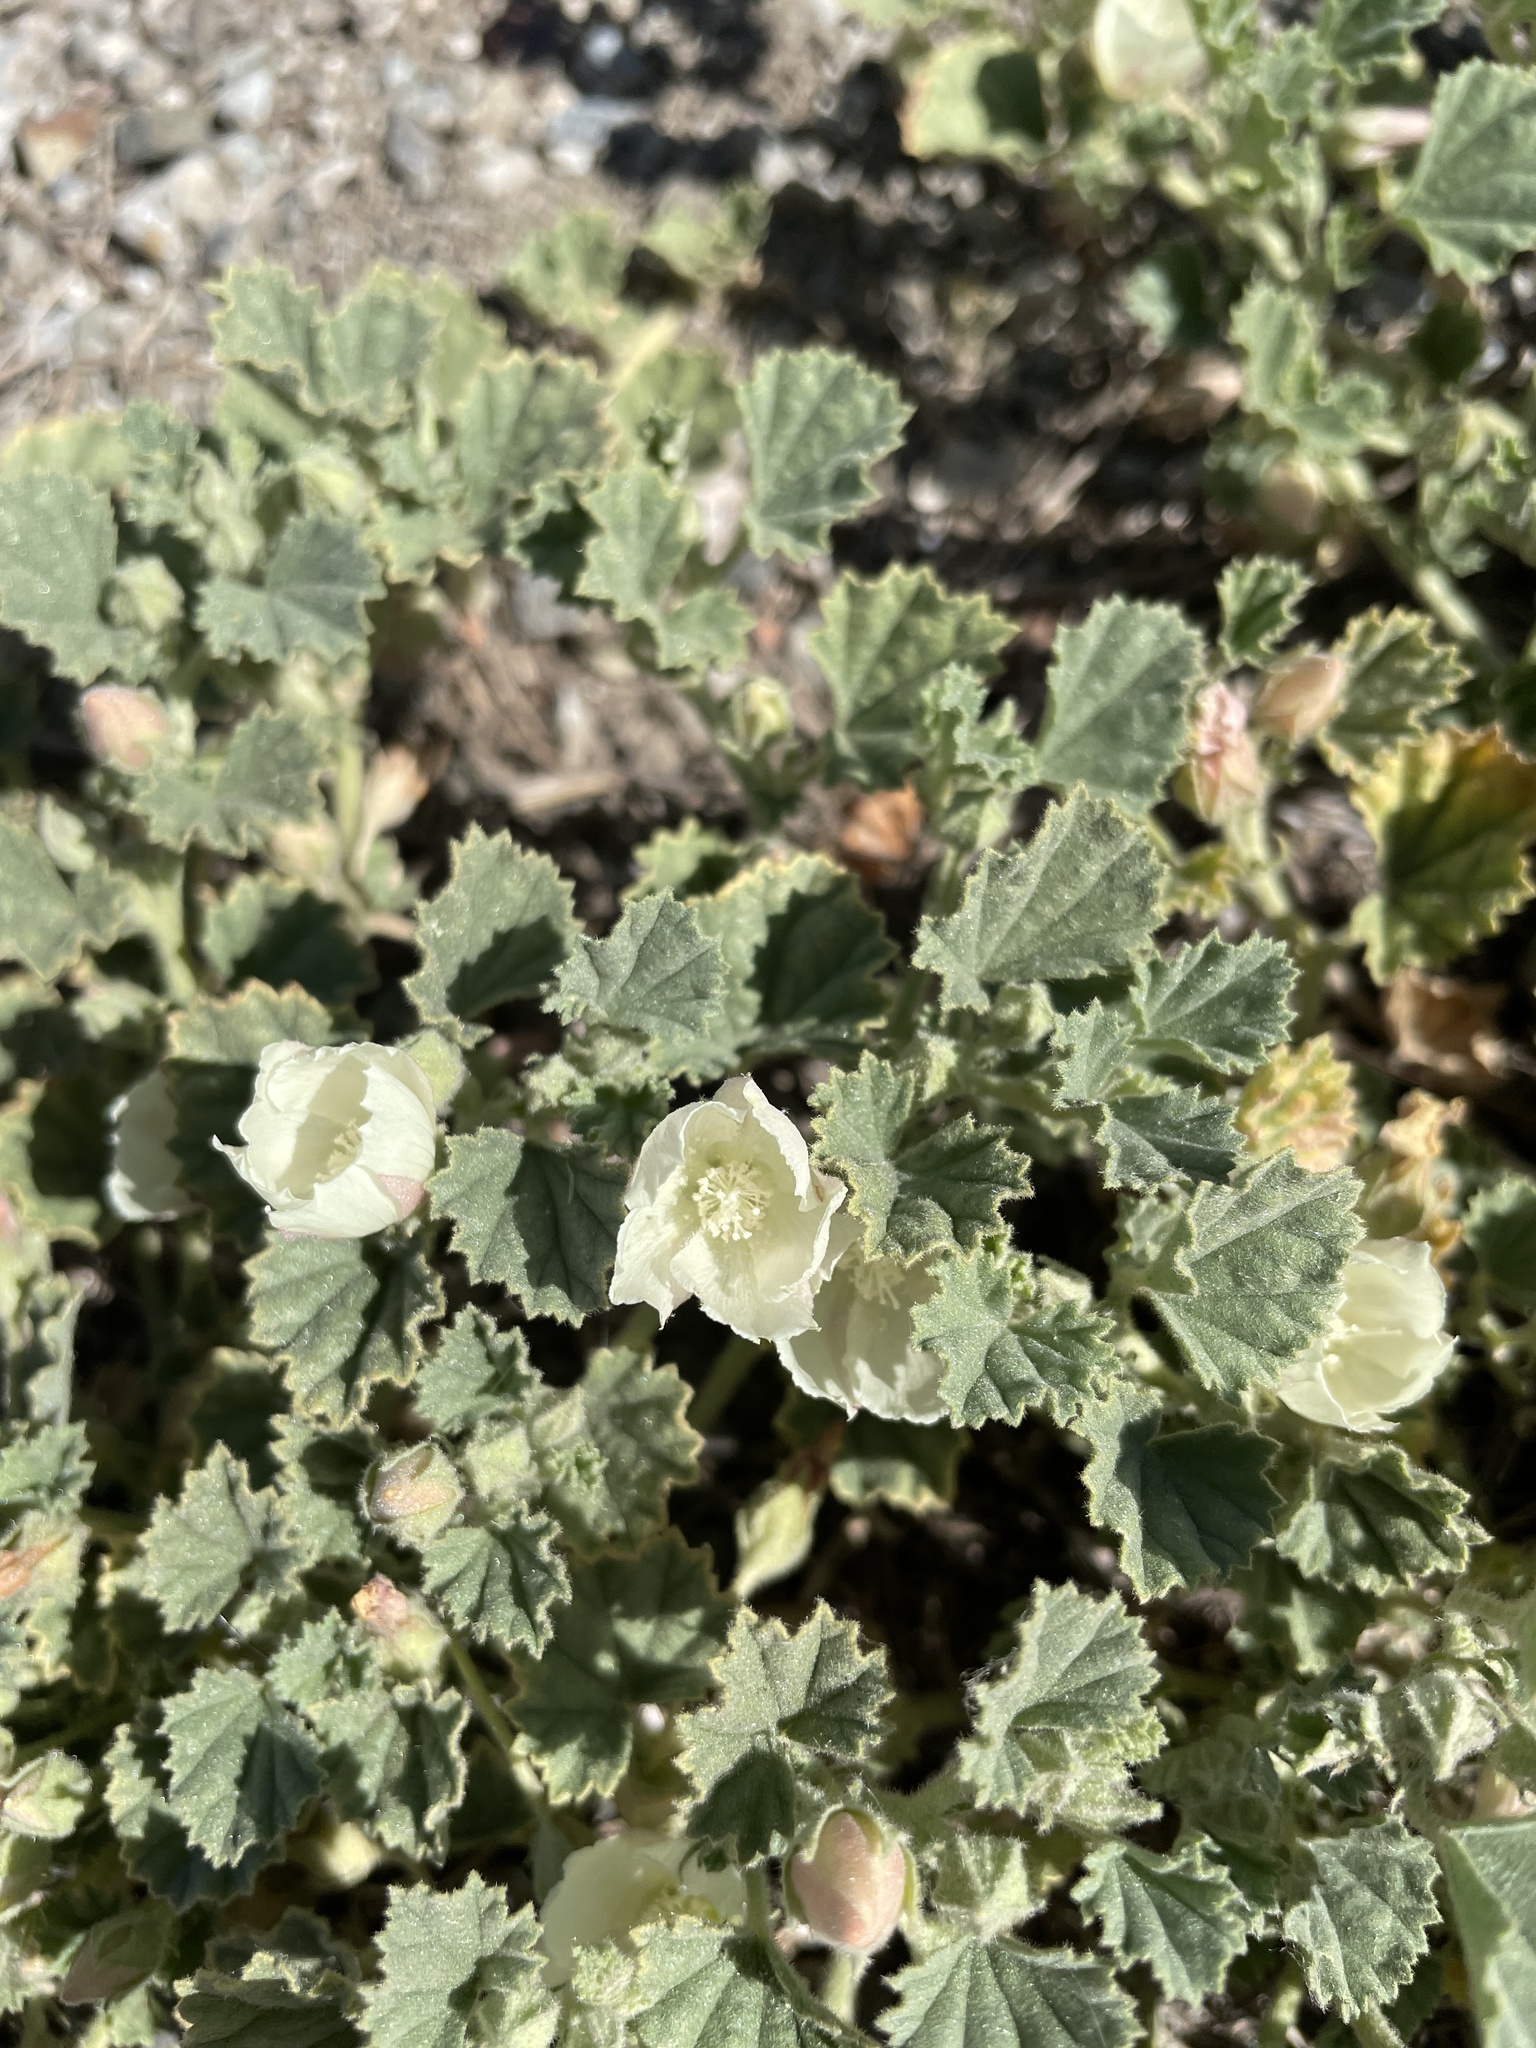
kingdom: Plantae
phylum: Tracheophyta
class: Magnoliopsida
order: Malvales
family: Malvaceae
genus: Malvella
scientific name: Malvella leprosa
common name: Alkali-mallow
